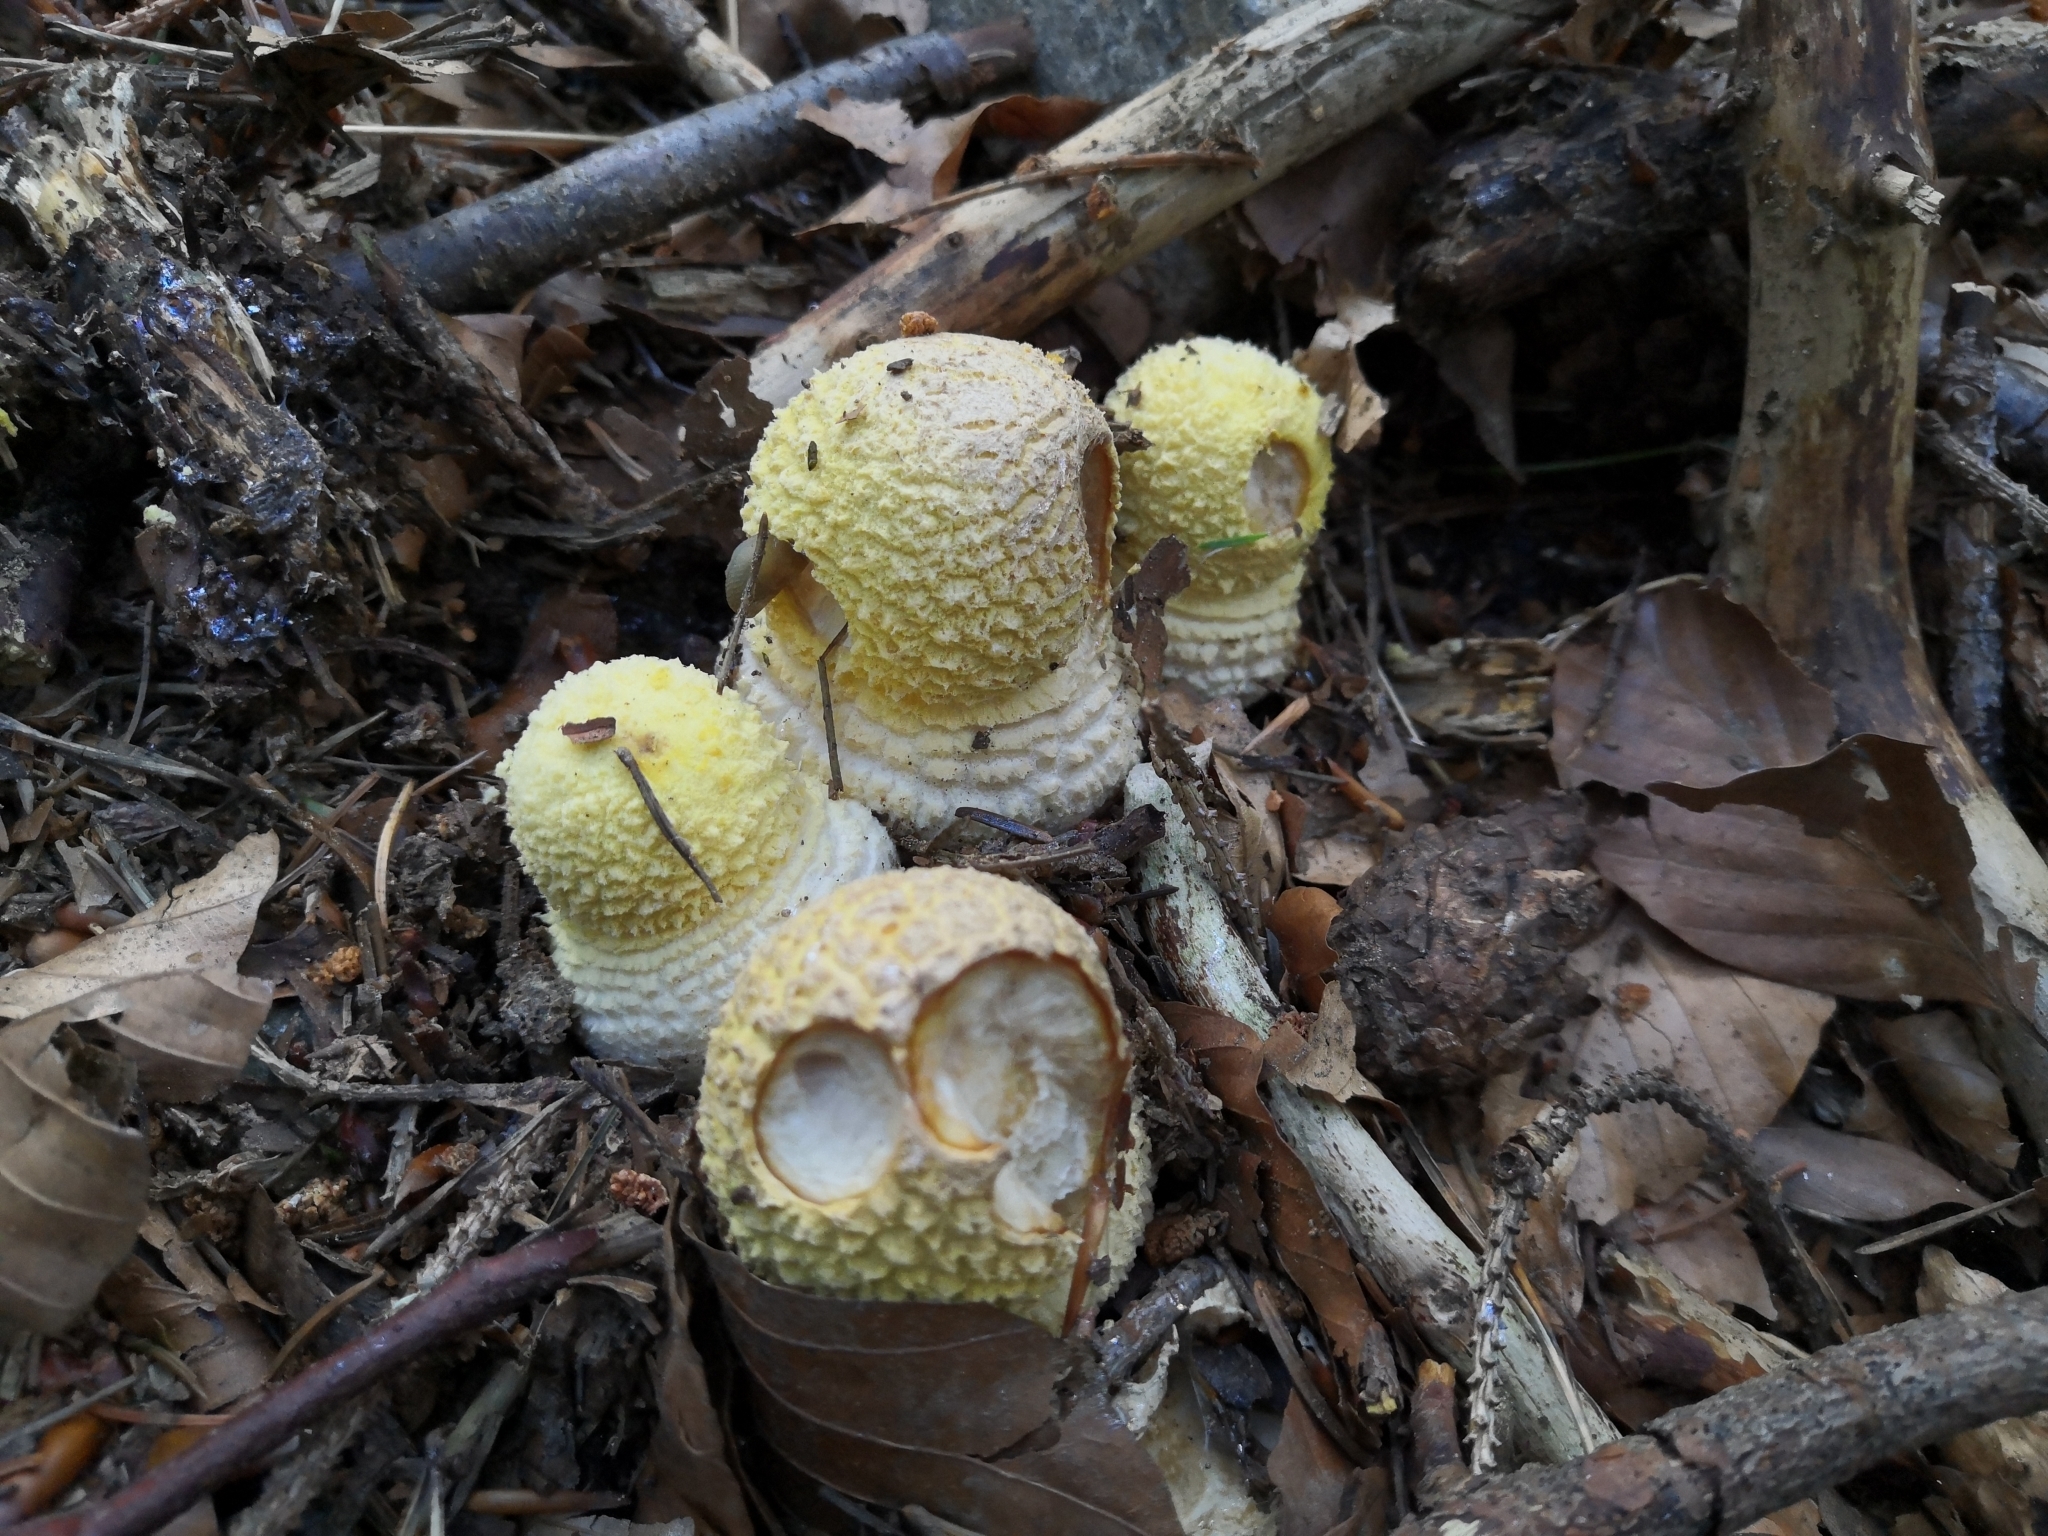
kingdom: Fungi
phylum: Basidiomycota
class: Agaricomycetes
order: Agaricales
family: Amanitaceae
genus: Amanita
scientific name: Amanita muscaria
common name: Fly agaric
